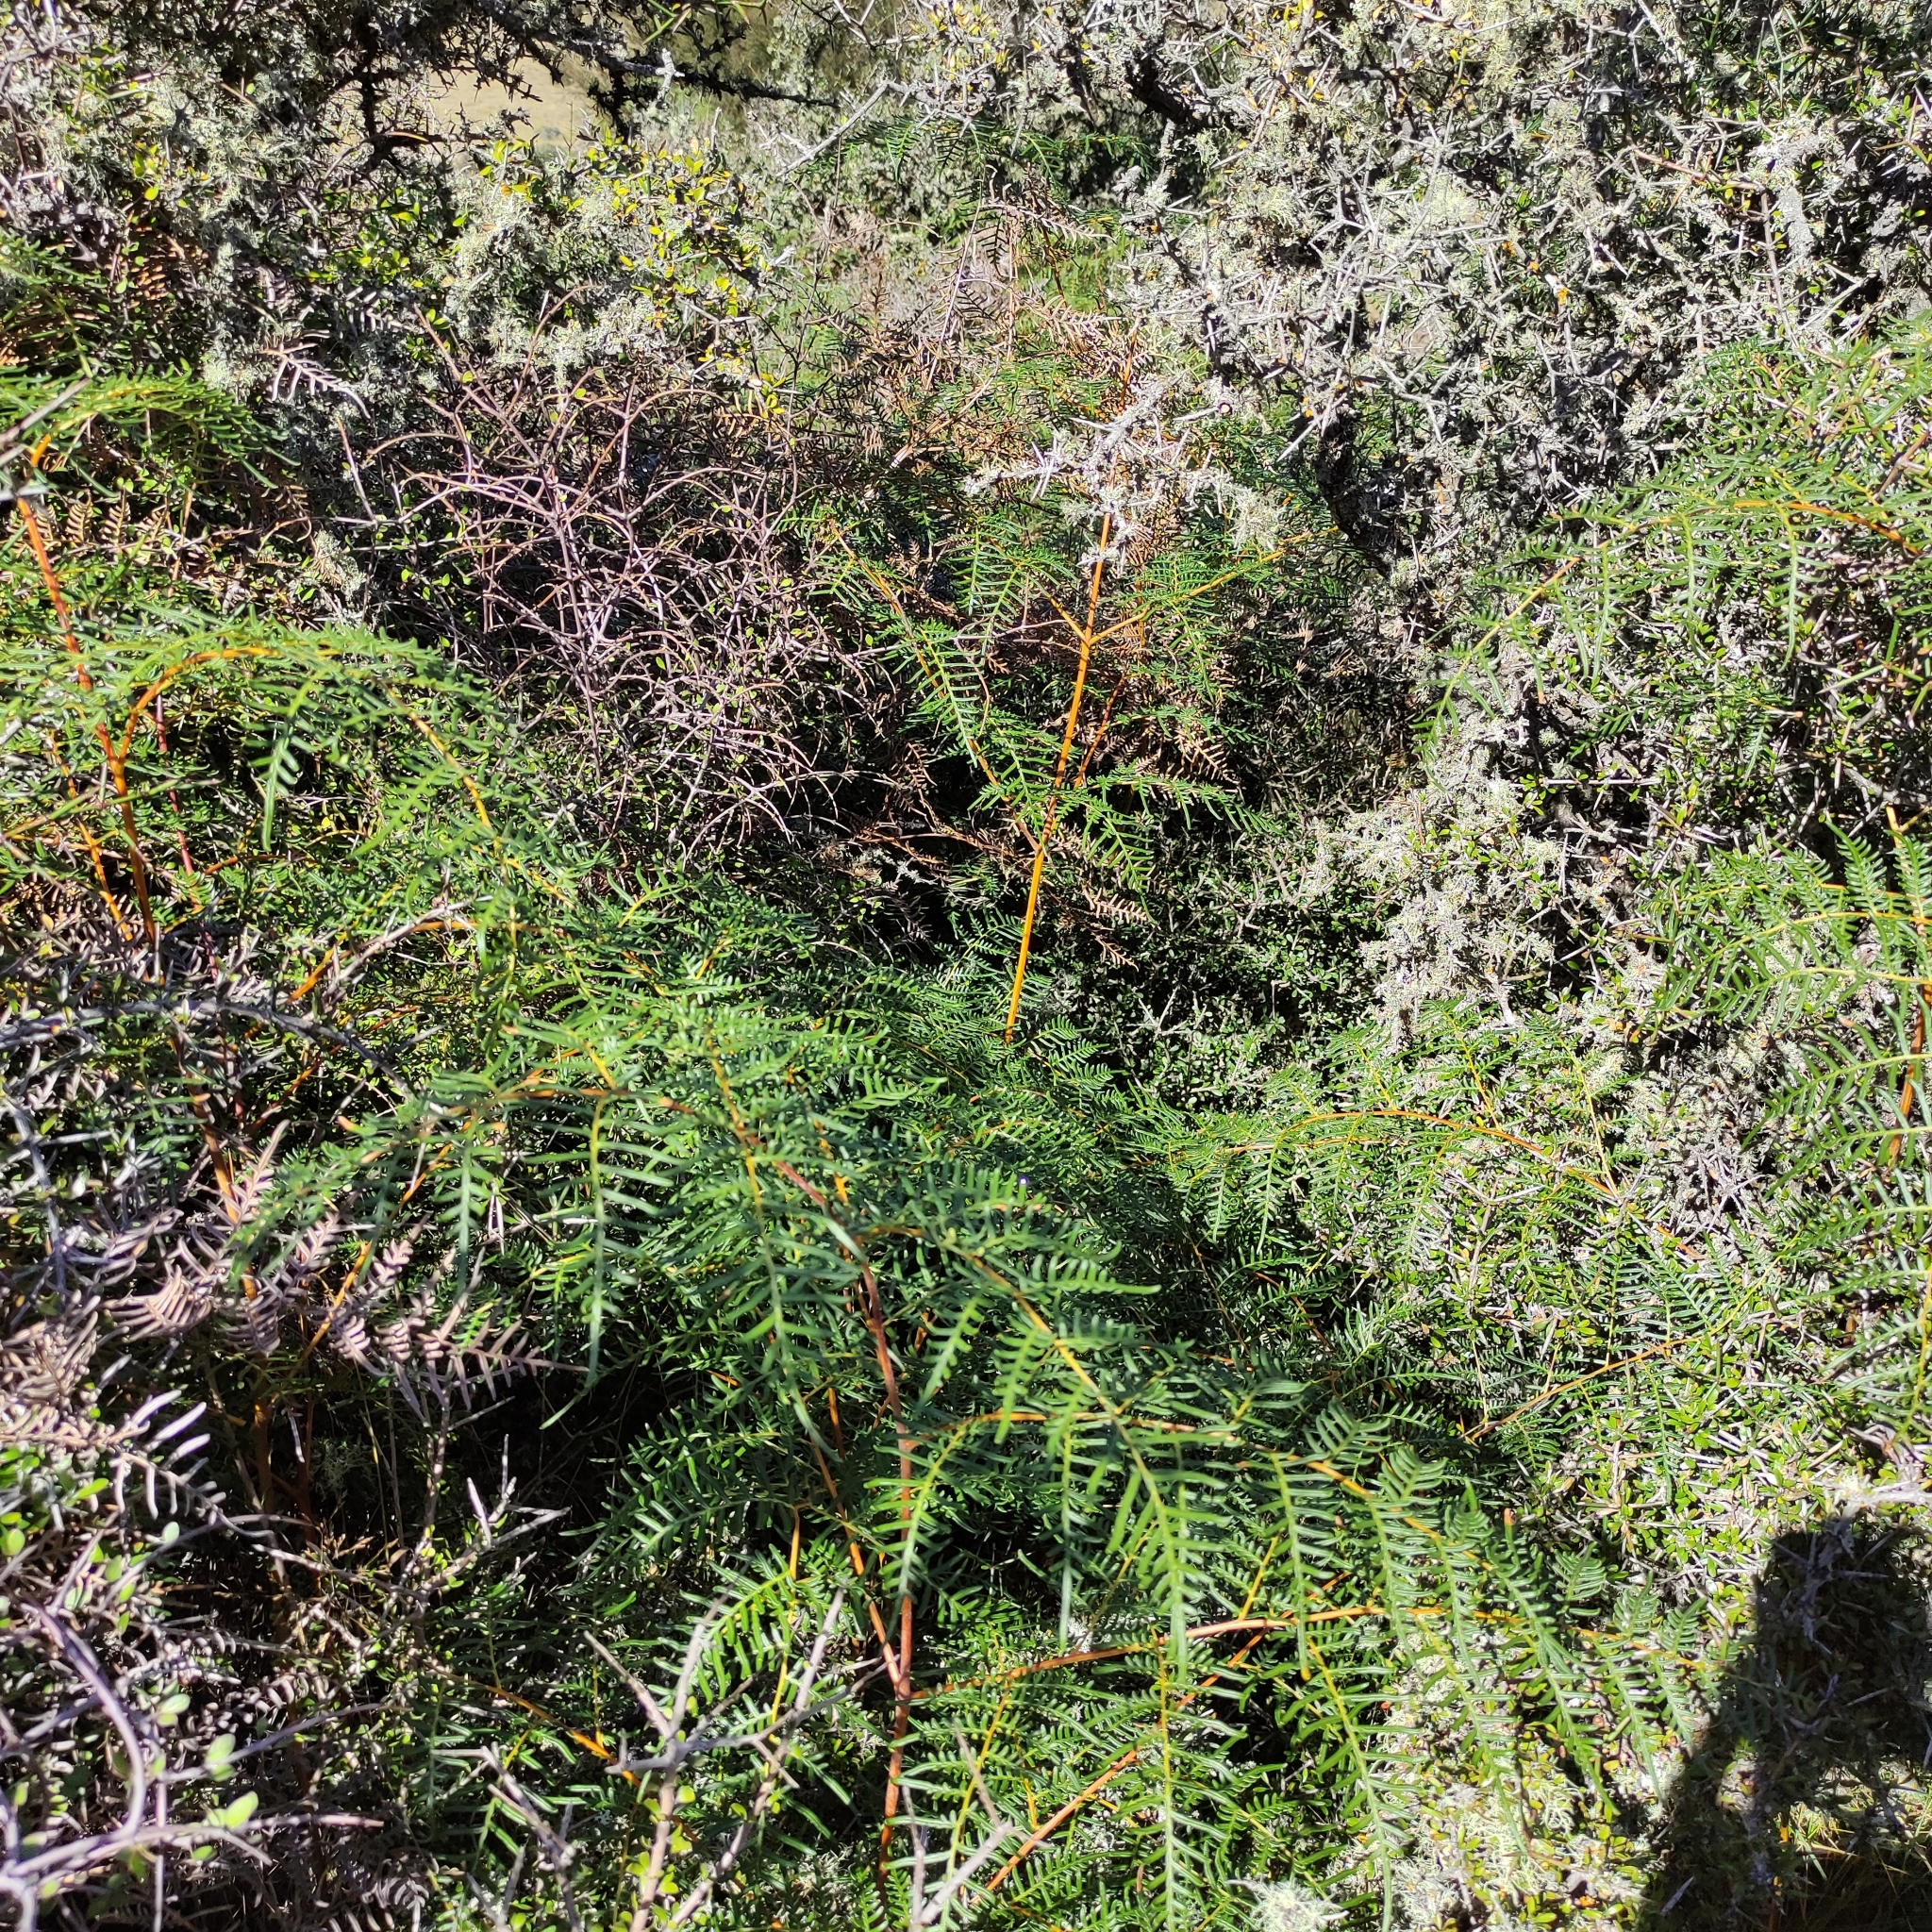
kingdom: Plantae
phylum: Tracheophyta
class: Polypodiopsida
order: Polypodiales
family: Dennstaedtiaceae
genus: Pteridium
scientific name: Pteridium esculentum
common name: Bracken fern
